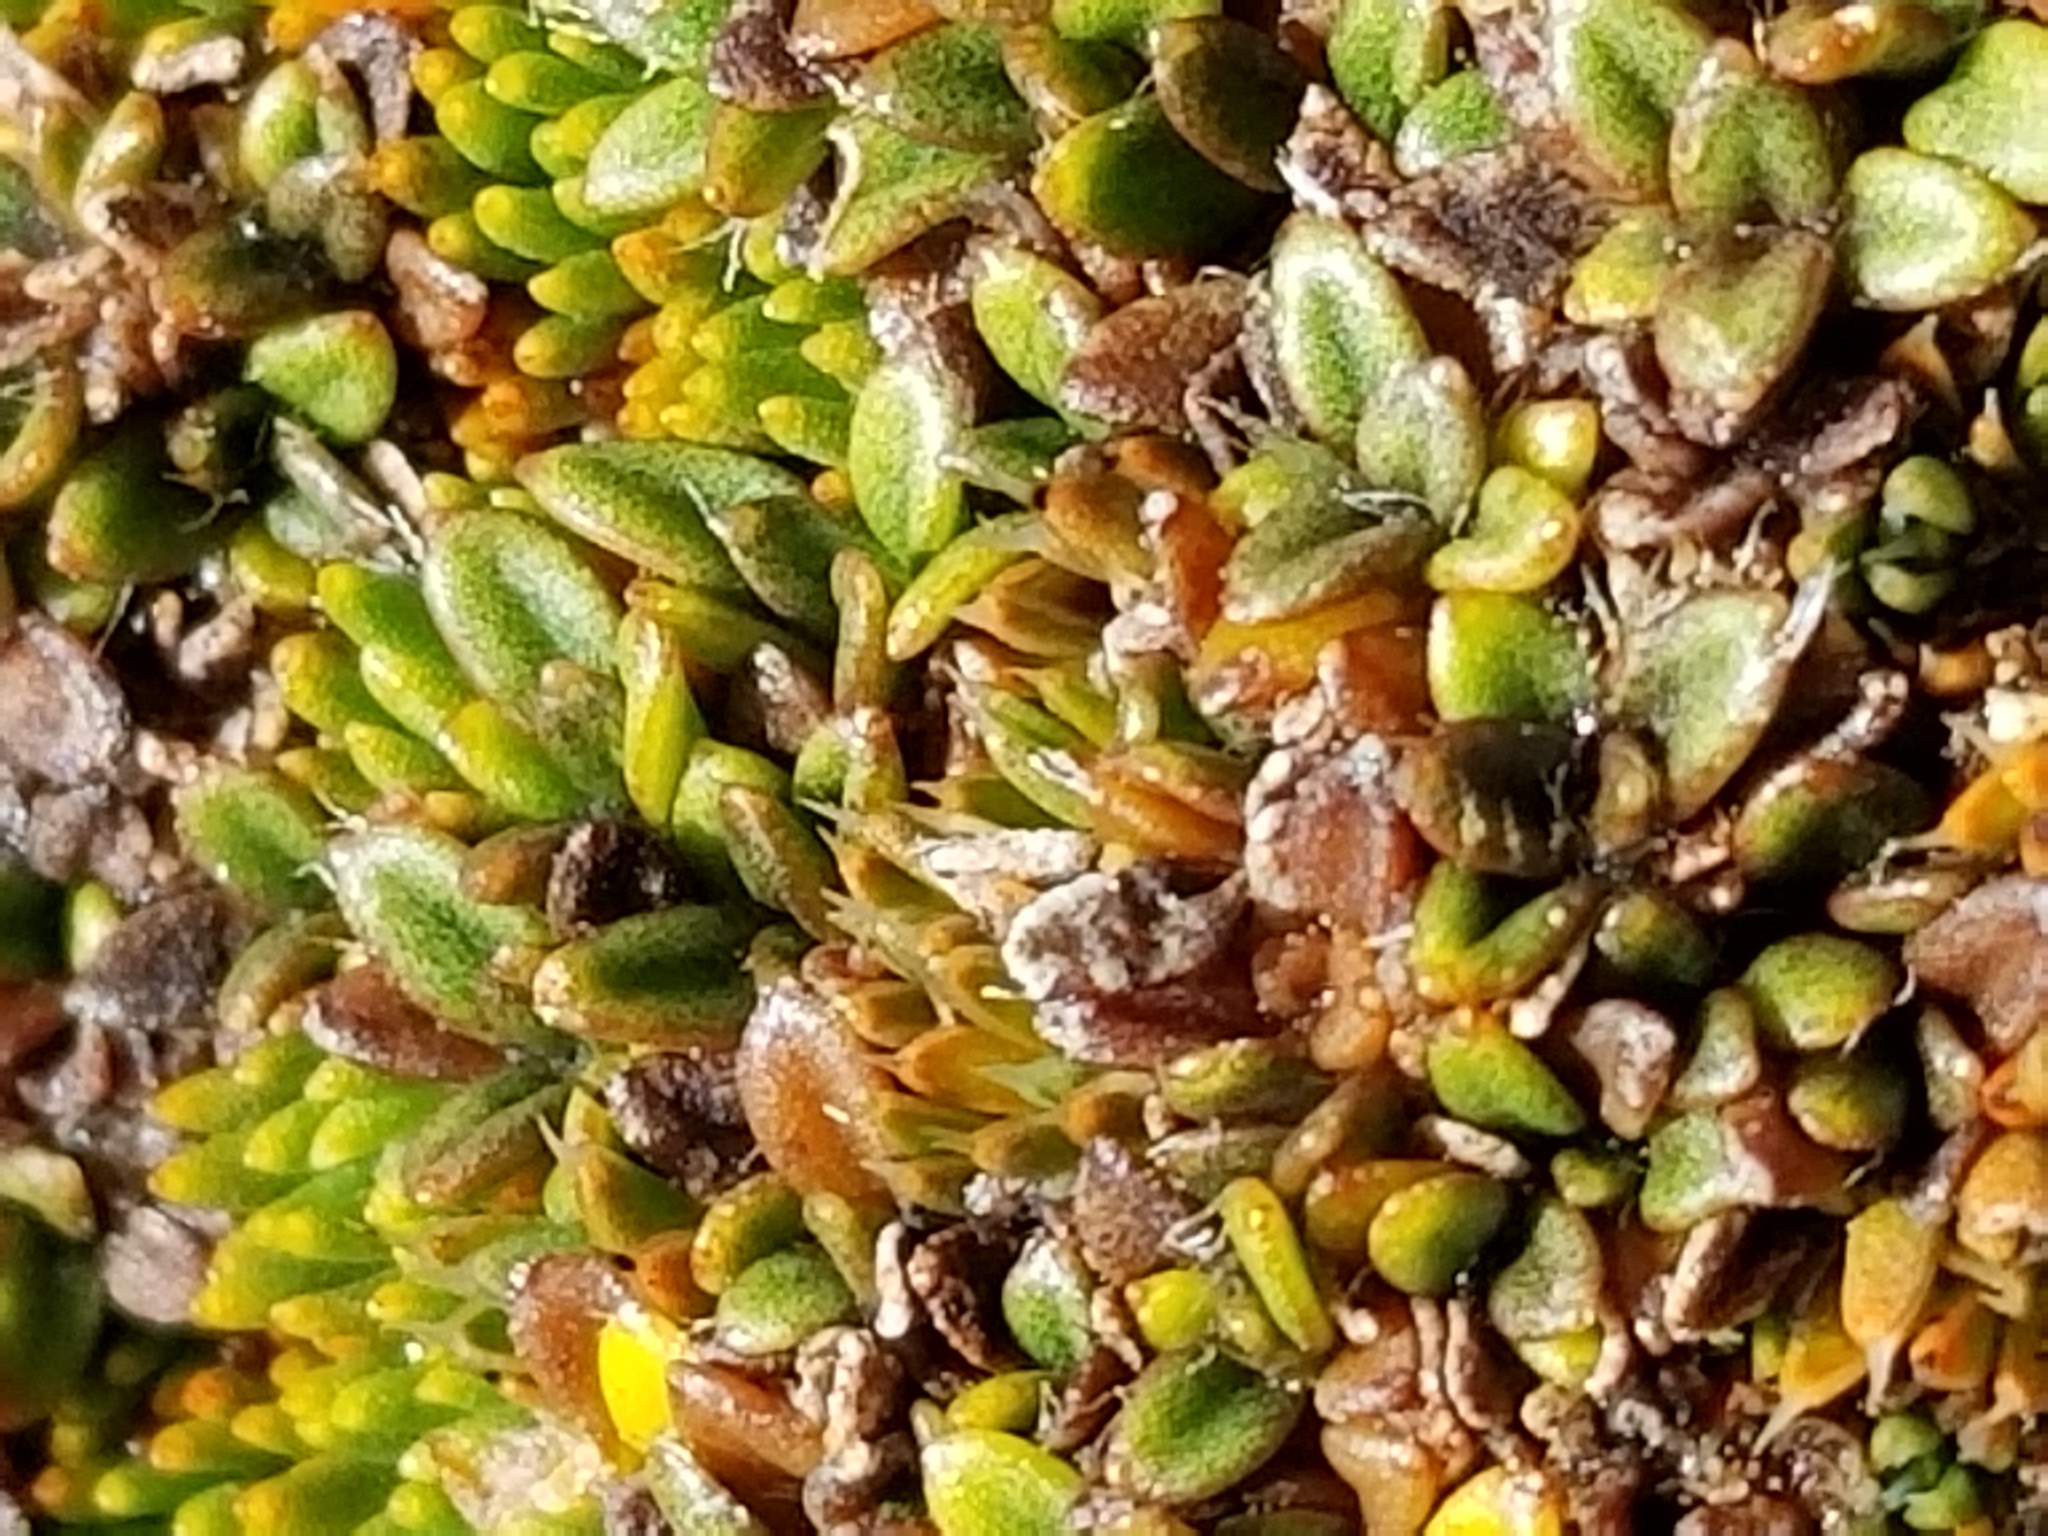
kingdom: Plantae
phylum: Tracheophyta
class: Magnoliopsida
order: Apiales
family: Apiaceae
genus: Actinotus
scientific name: Actinotus novae-zealandiae
